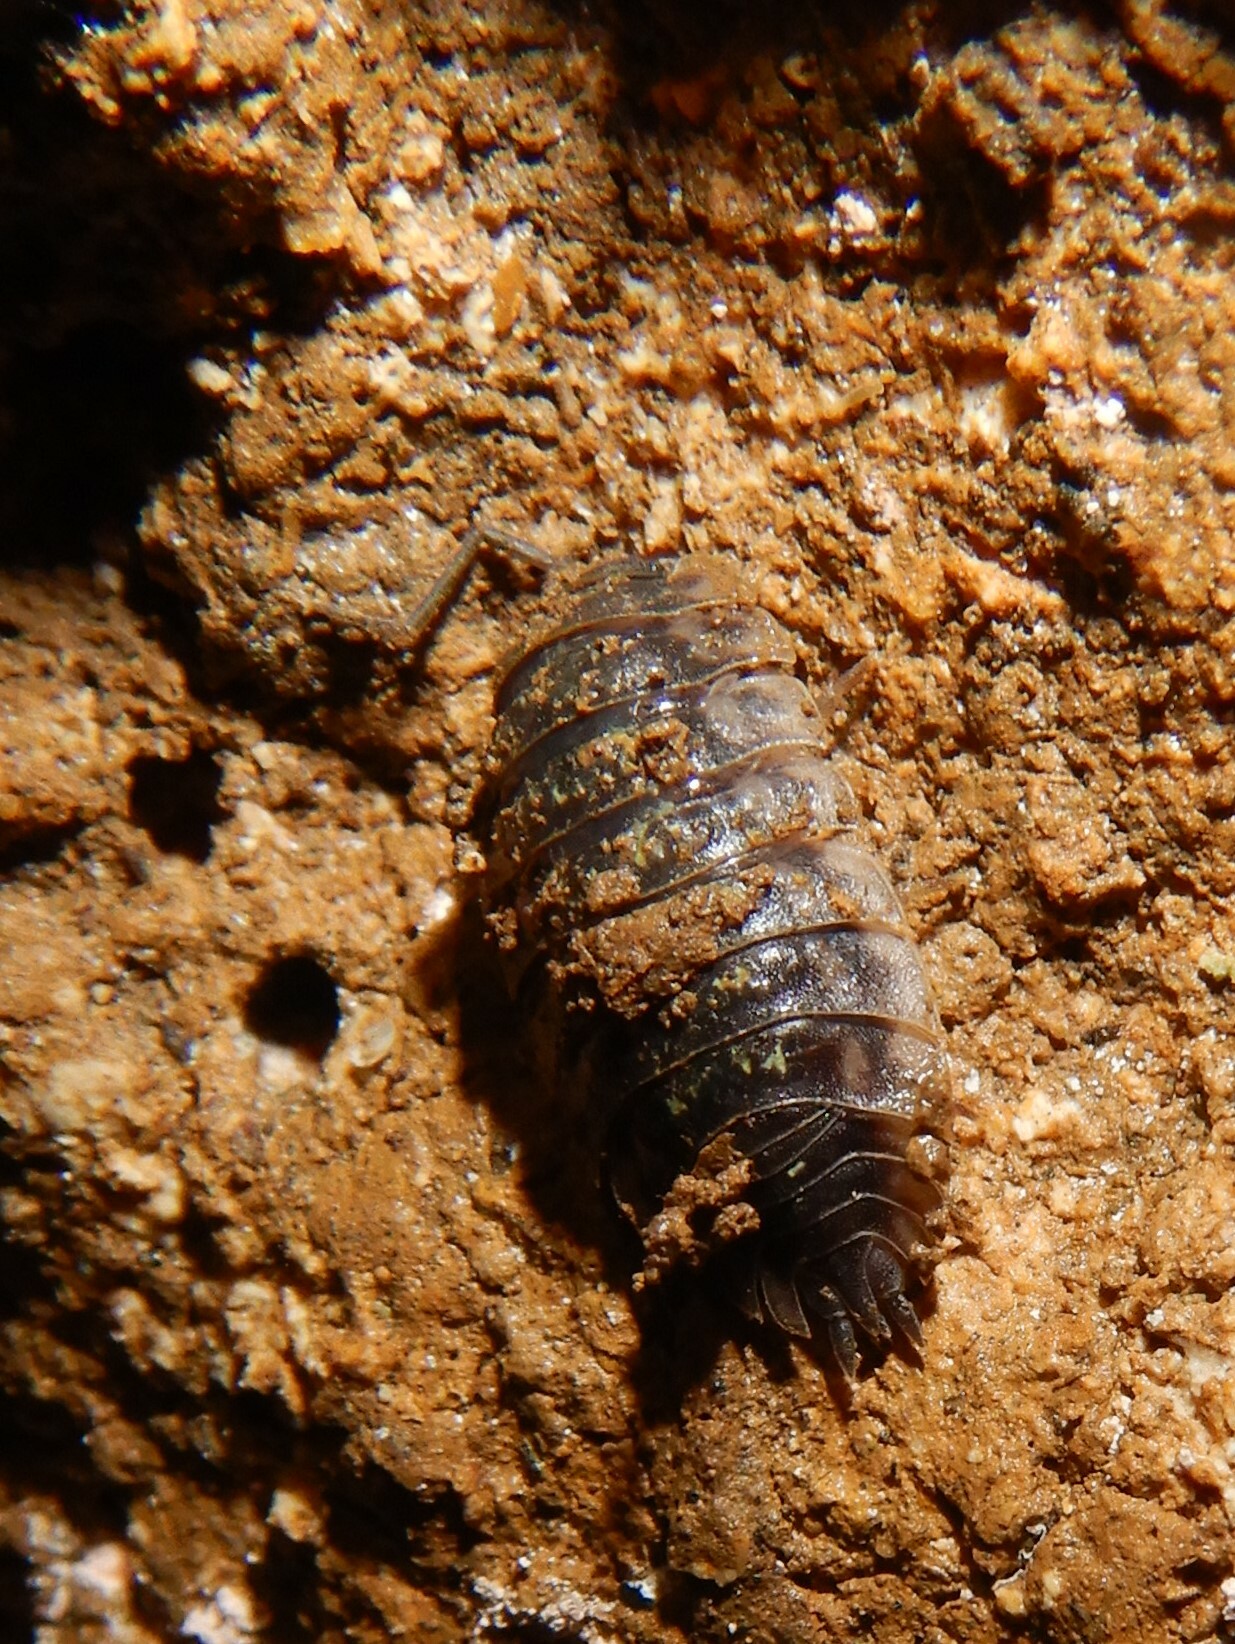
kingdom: Animalia
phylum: Arthropoda
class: Malacostraca
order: Isopoda
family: Oniscidae
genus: Oniscus
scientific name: Oniscus asellus
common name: Common shiny woodlouse
